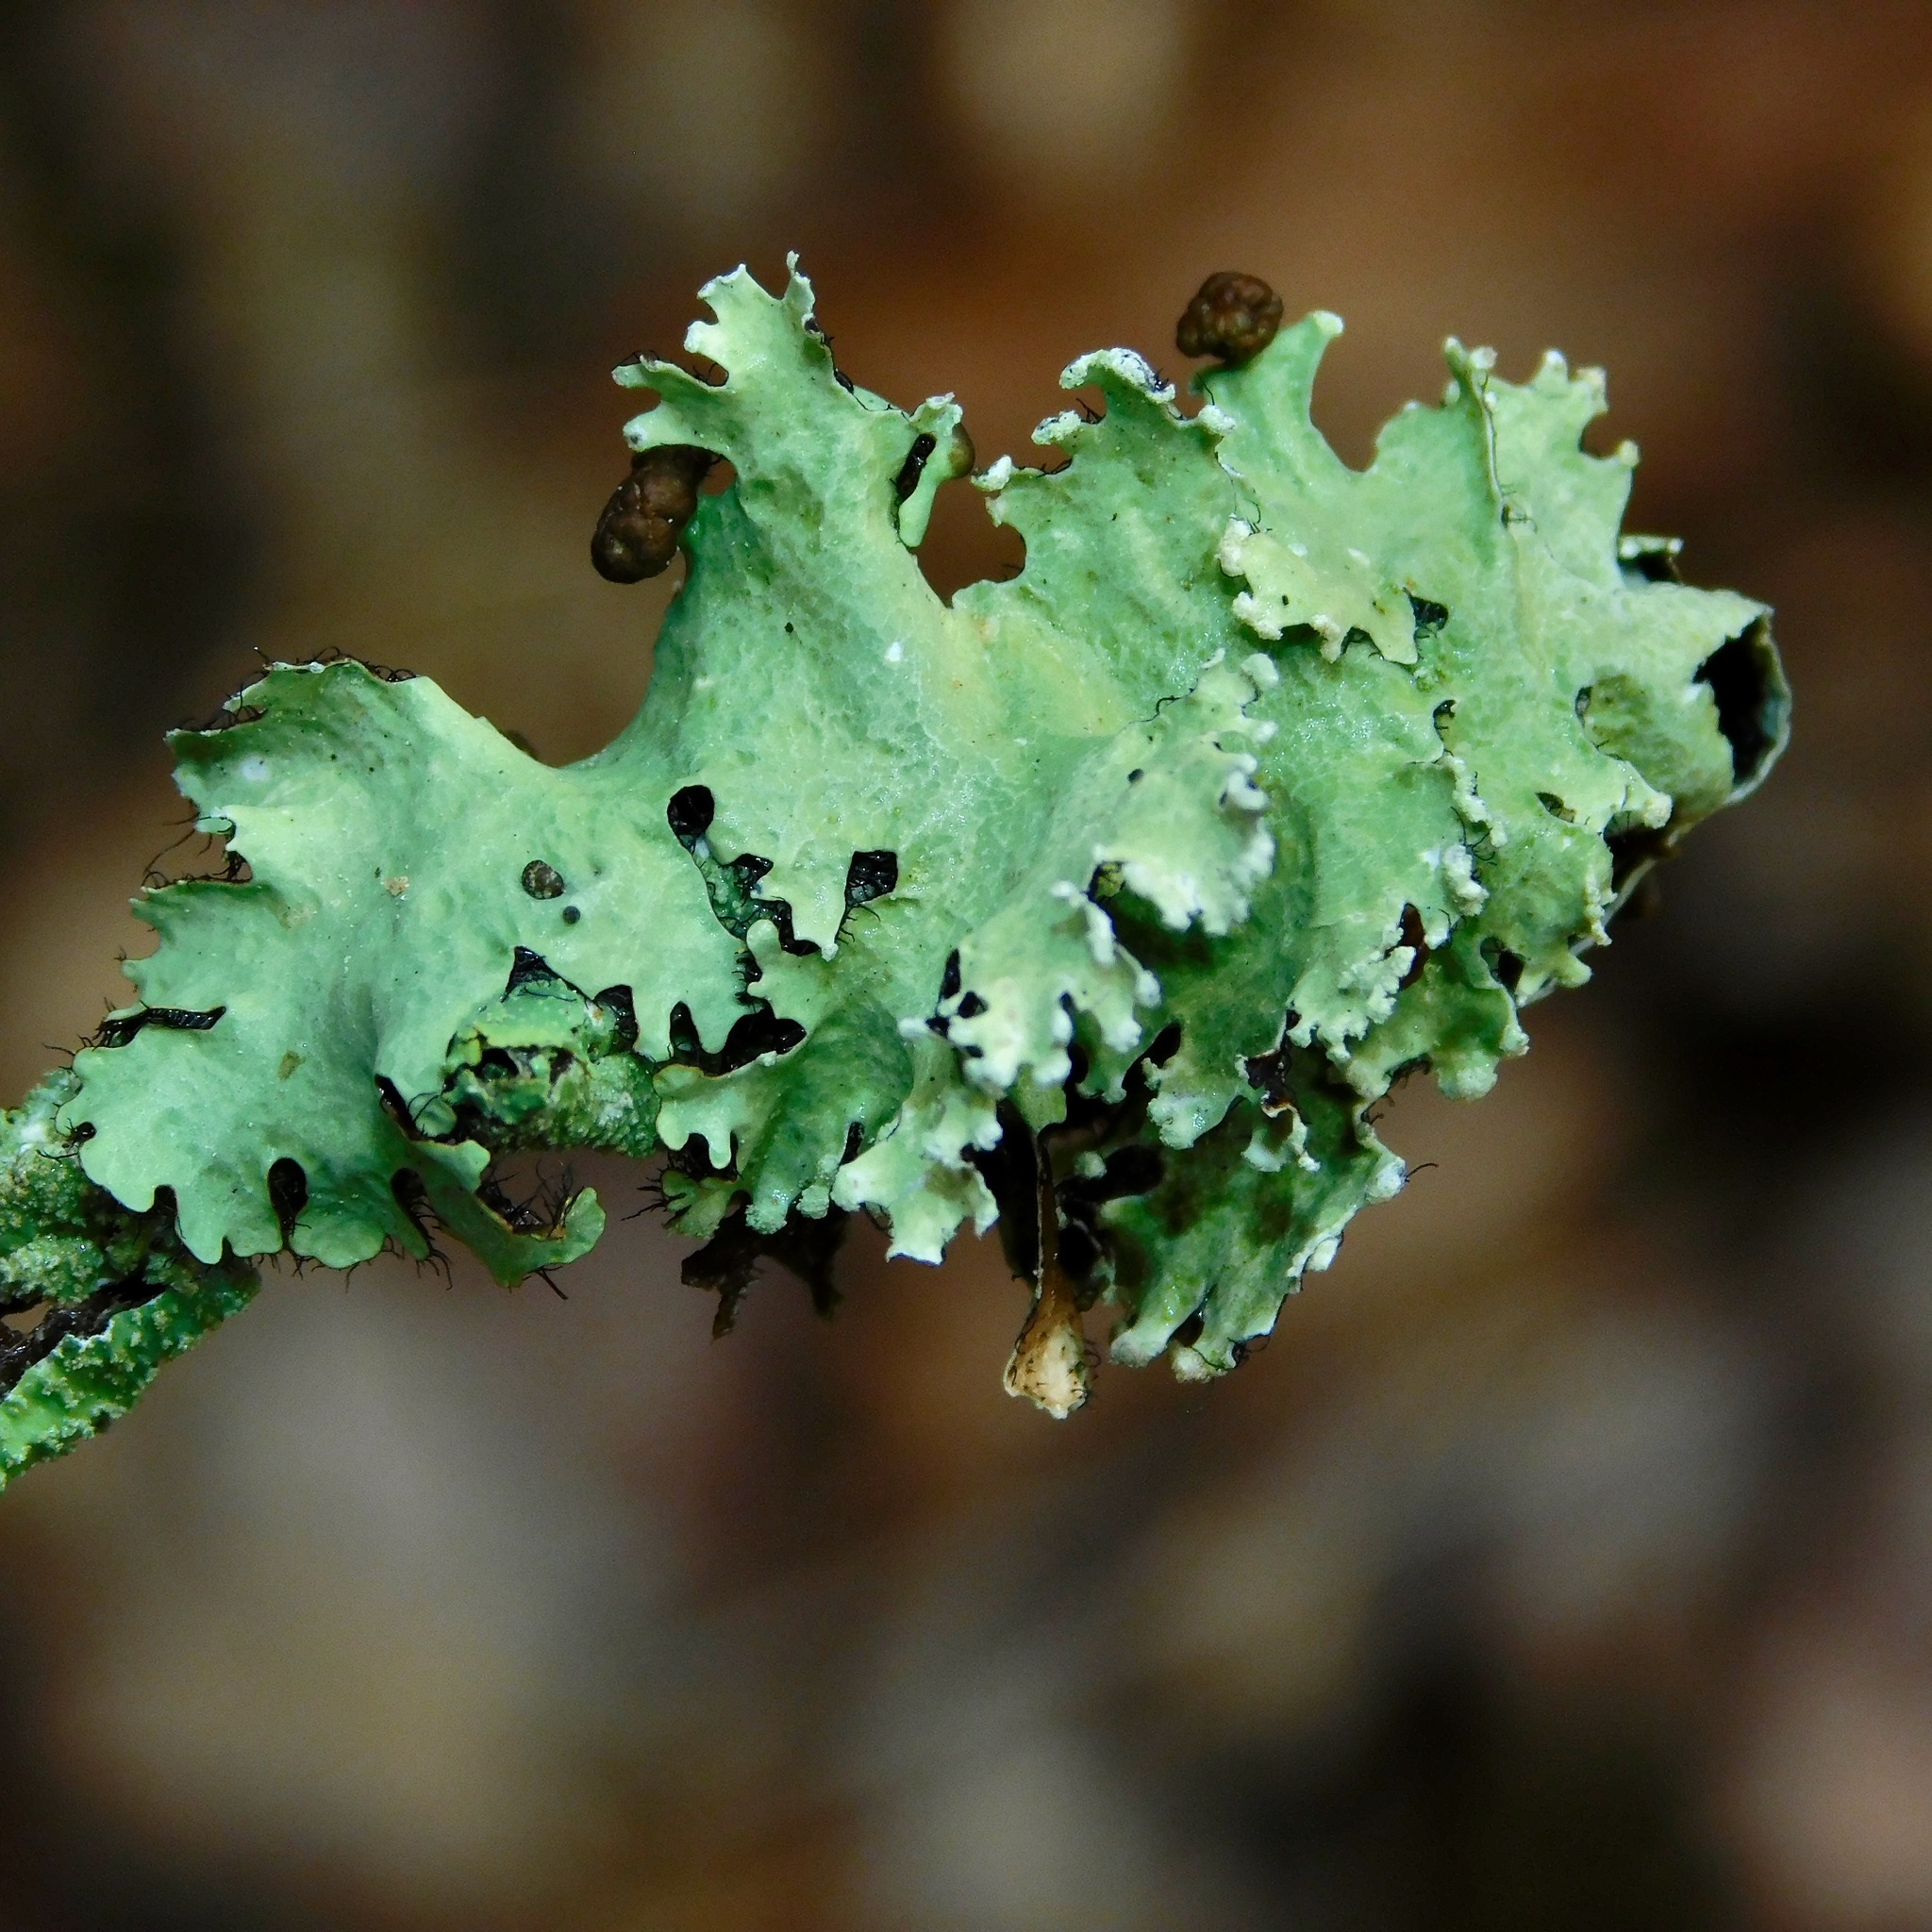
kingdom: Fungi
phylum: Ascomycota
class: Lecanoromycetes
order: Lecanorales
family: Parmeliaceae
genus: Parmotrema
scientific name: Parmotrema reticulatum
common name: Black sheet lichen
